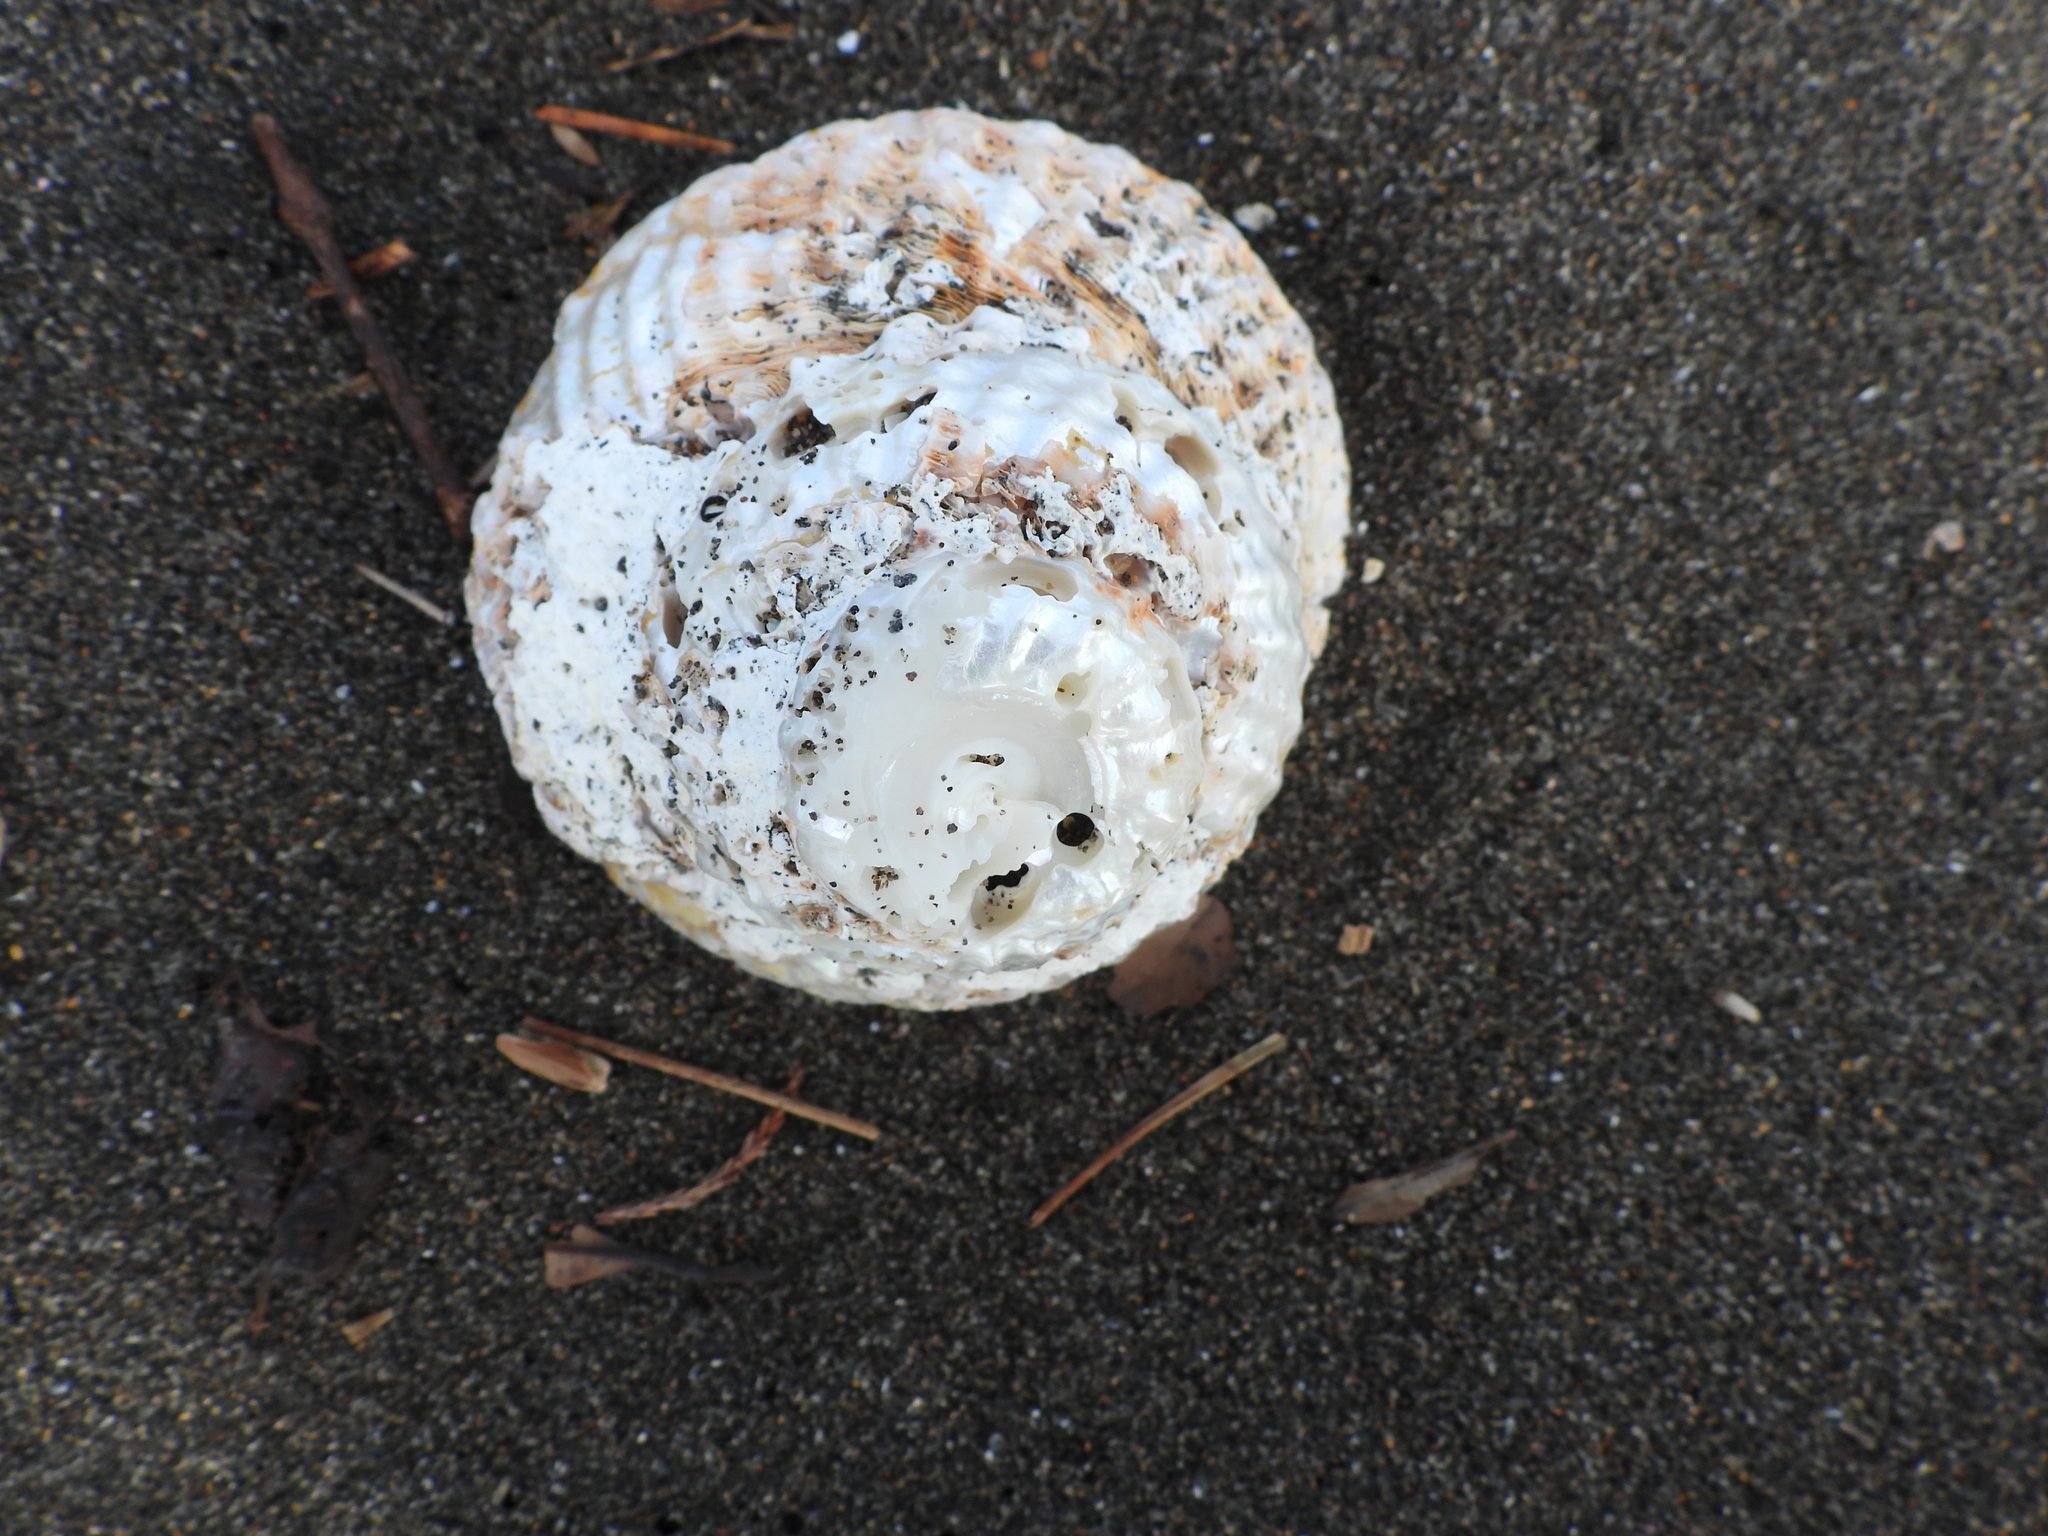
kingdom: Animalia
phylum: Mollusca
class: Gastropoda
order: Trochida
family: Turbinidae
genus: Cookia
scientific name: Cookia sulcata
